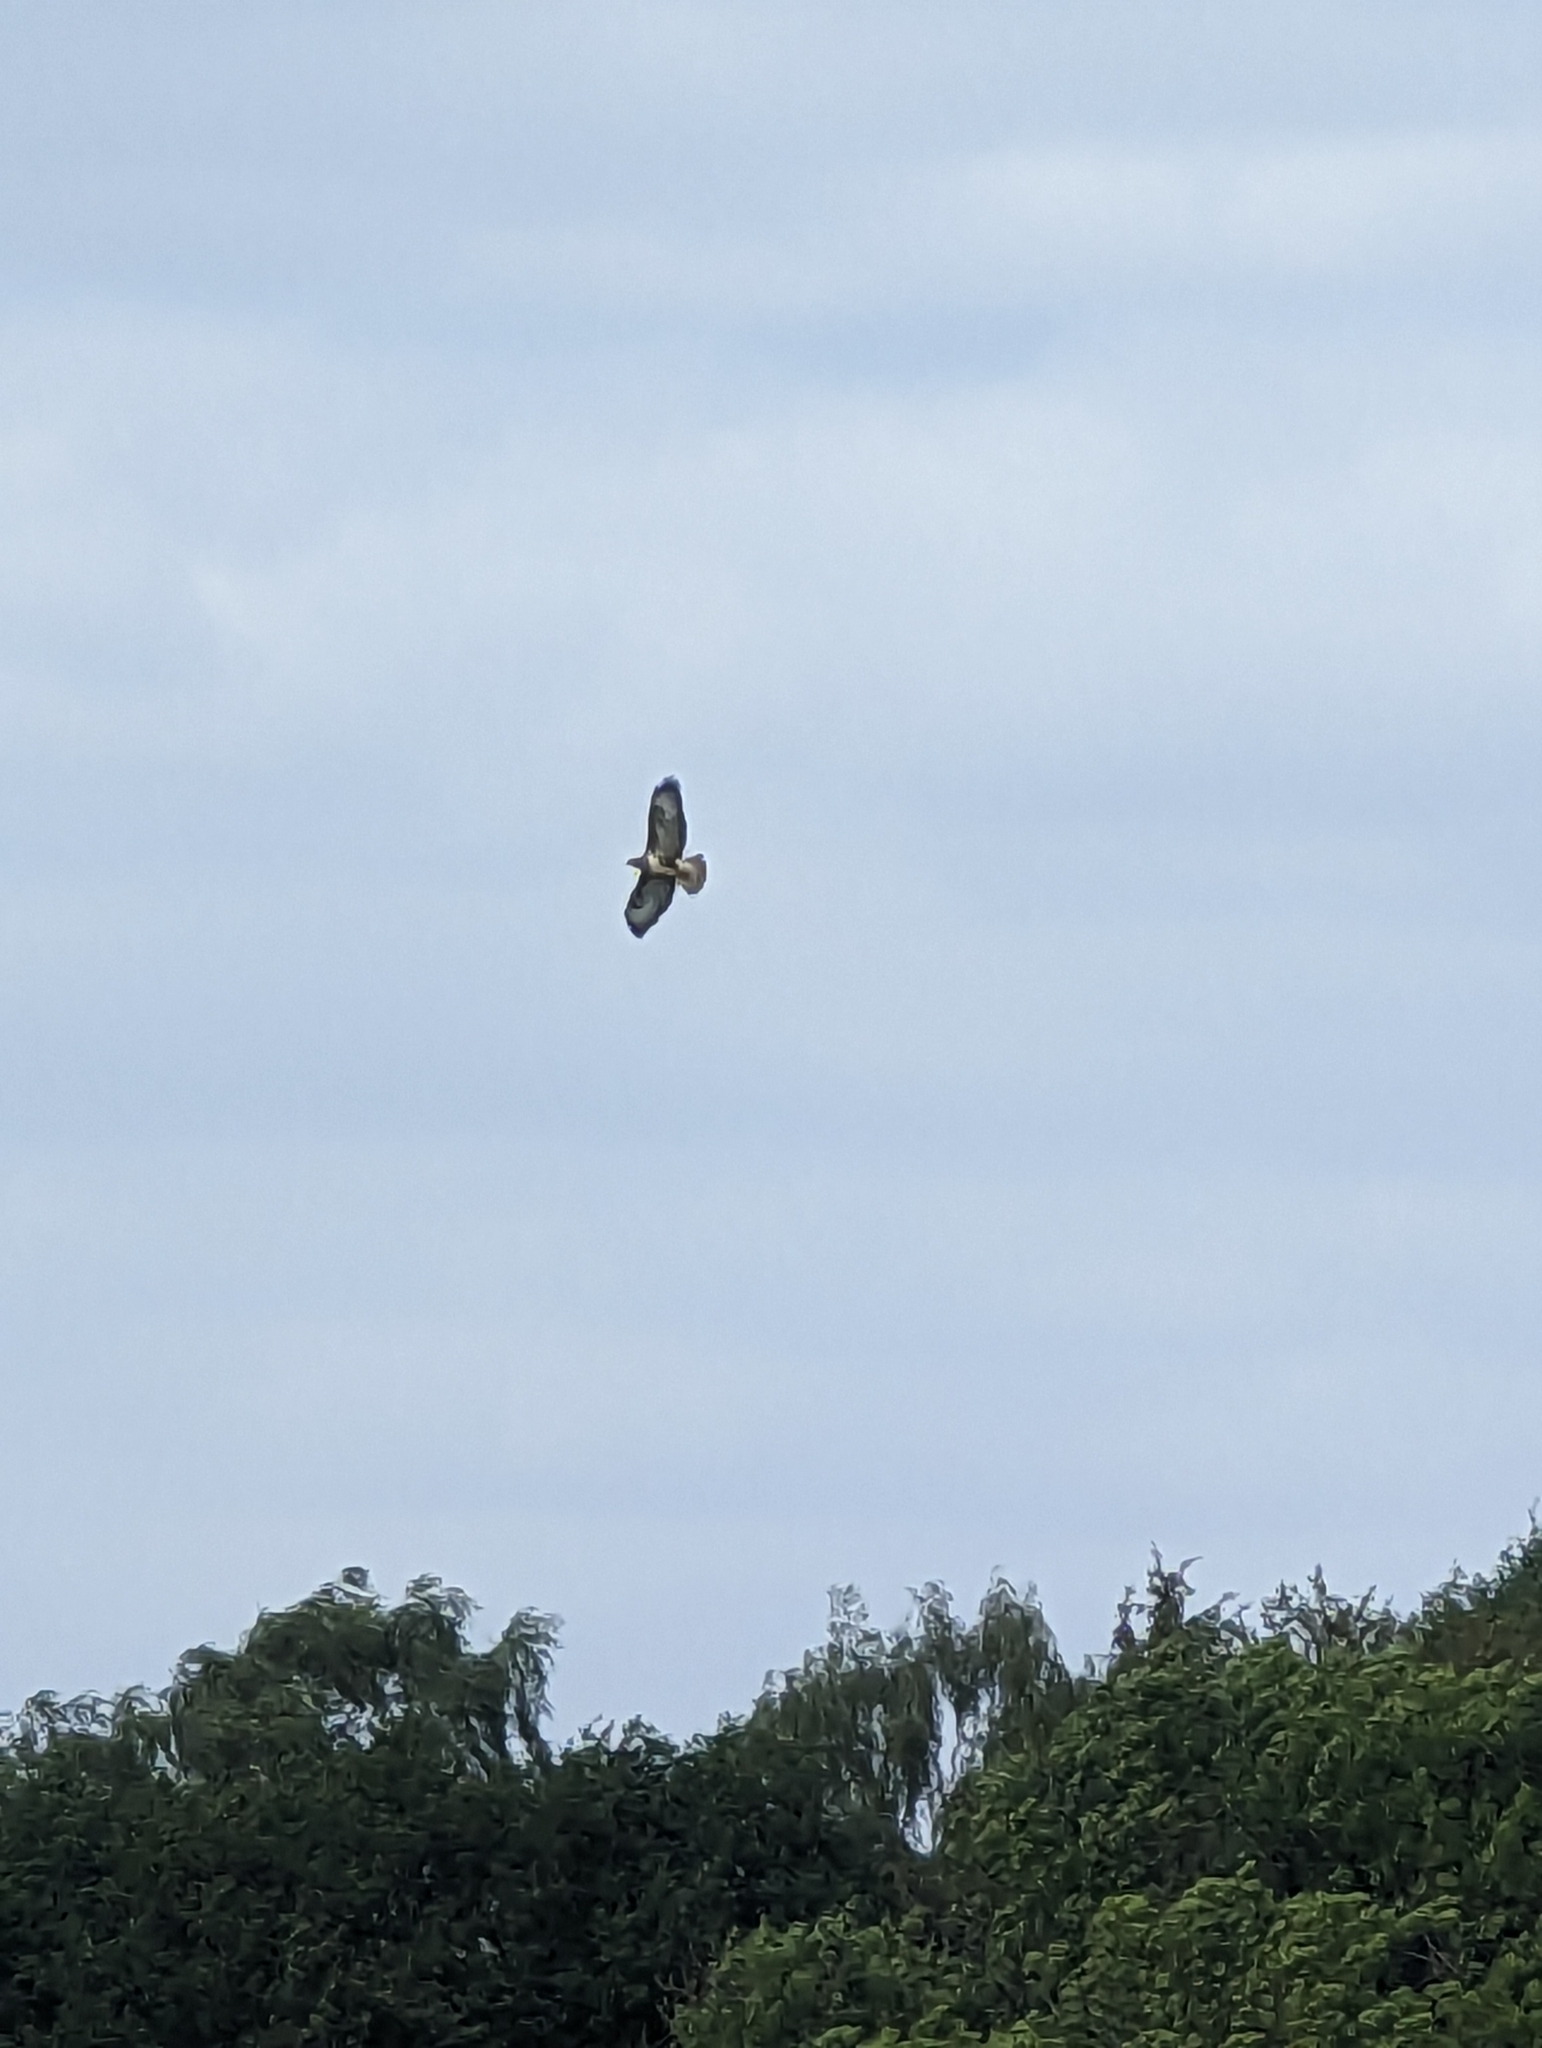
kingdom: Animalia
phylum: Chordata
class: Aves
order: Accipitriformes
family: Accipitridae
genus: Buteo
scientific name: Buteo buteo
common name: Common buzzard
